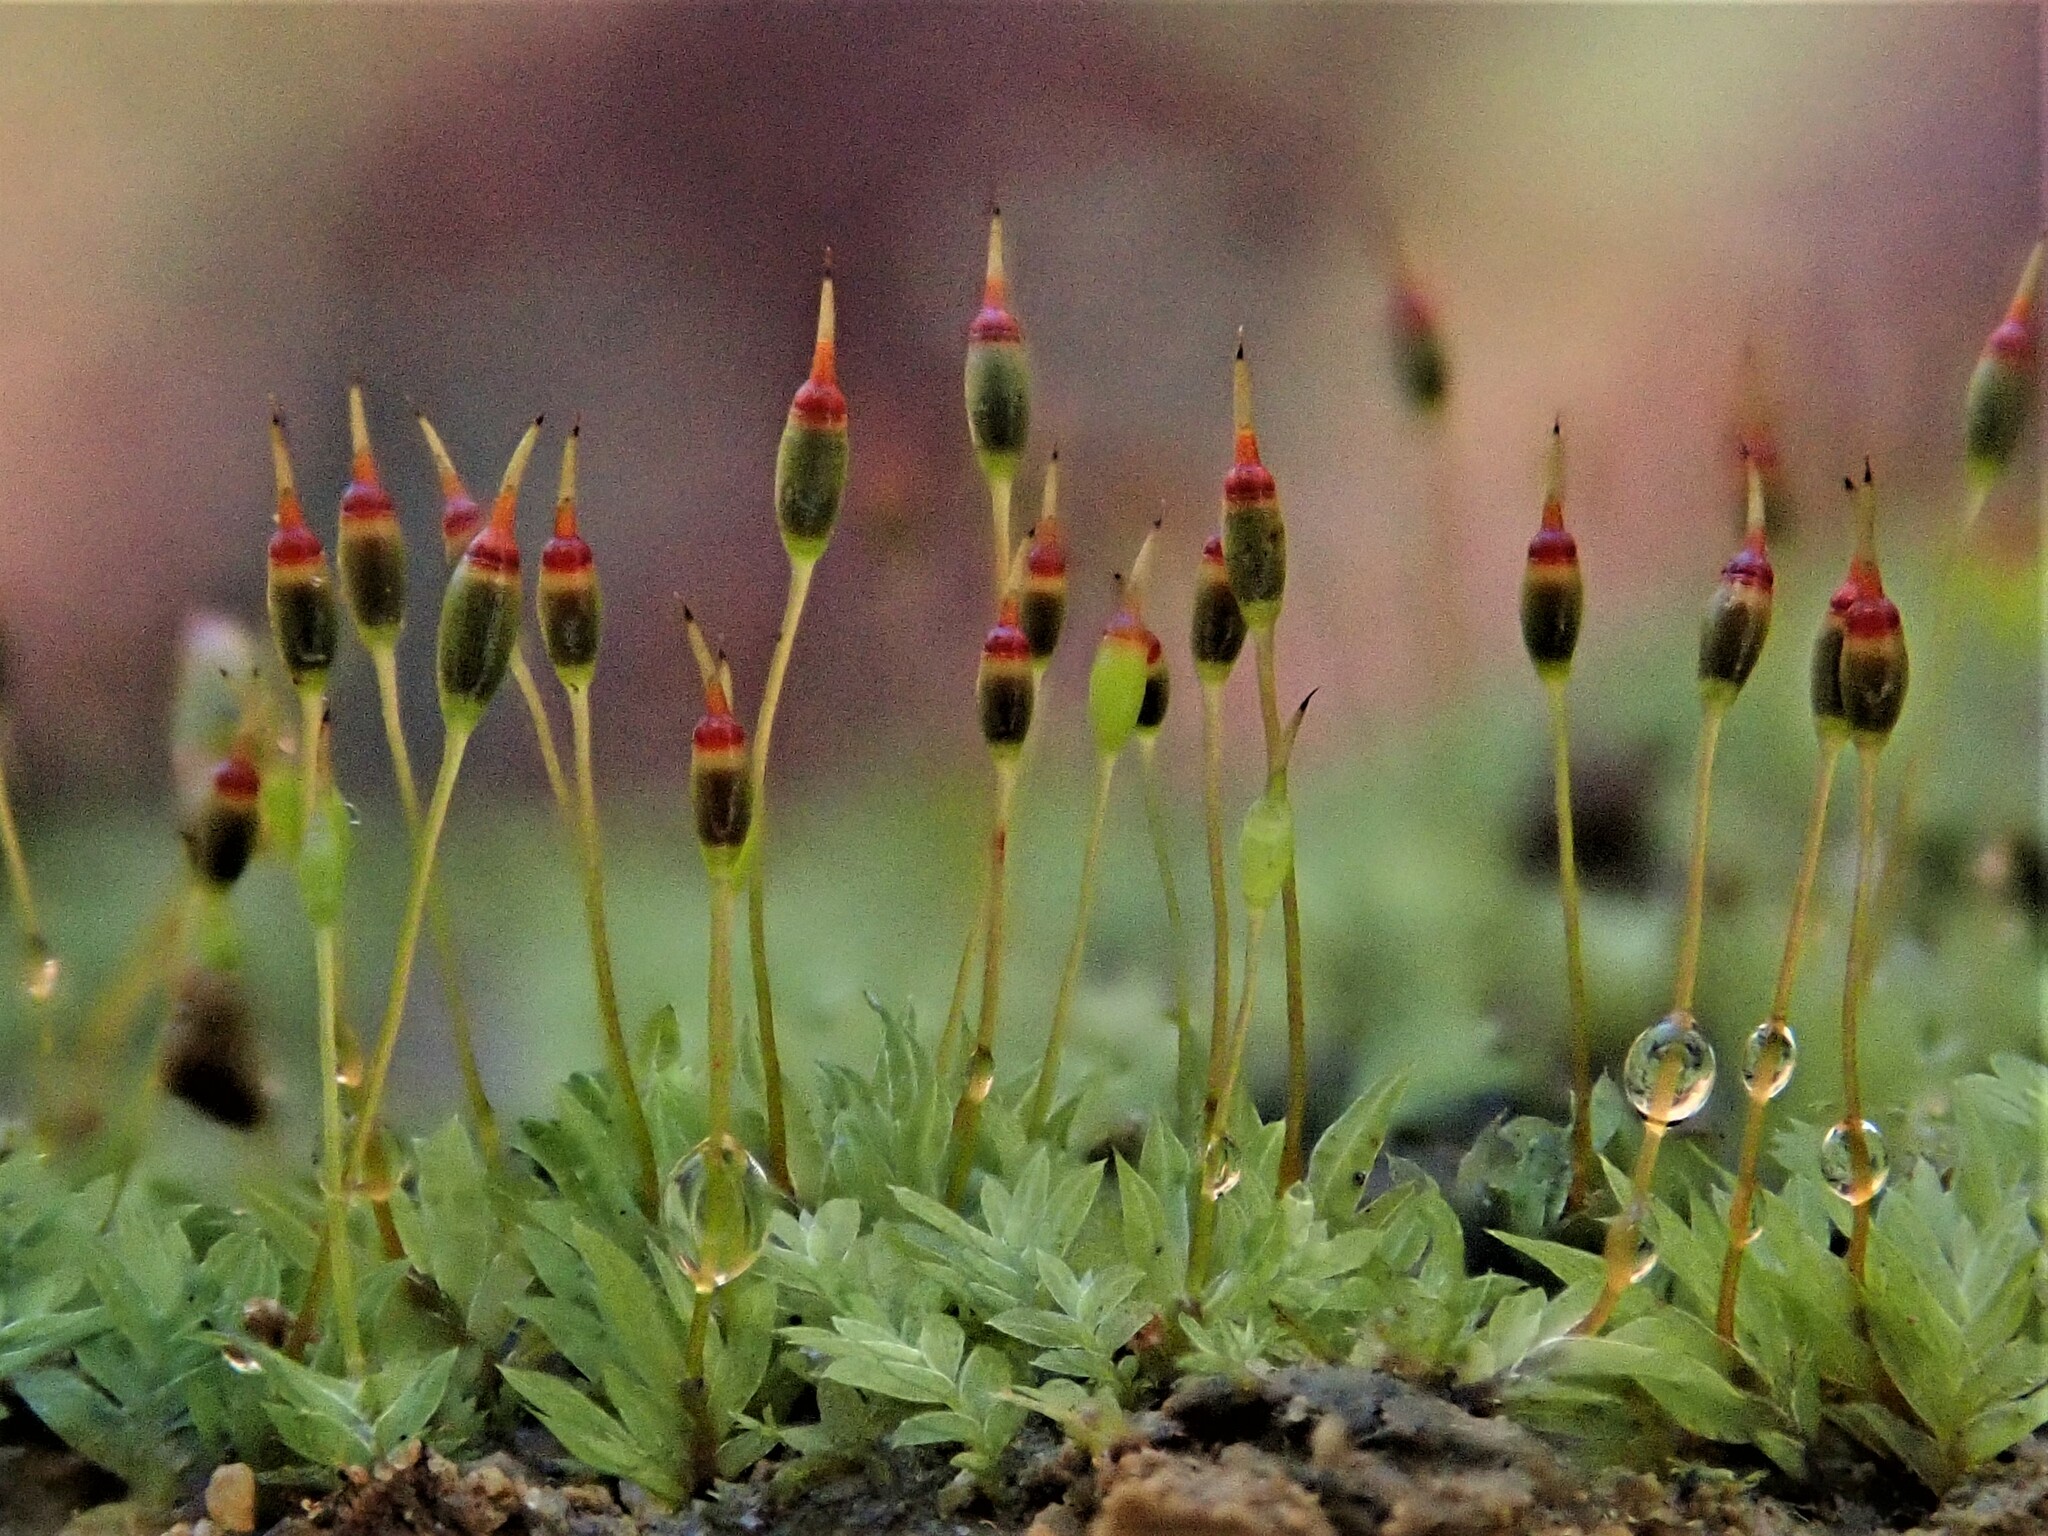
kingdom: Plantae
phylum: Bryophyta
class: Bryopsida
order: Dicranales
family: Fissidentaceae
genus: Fissidens
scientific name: Fissidens bryoides
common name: Lesser pocket moss
